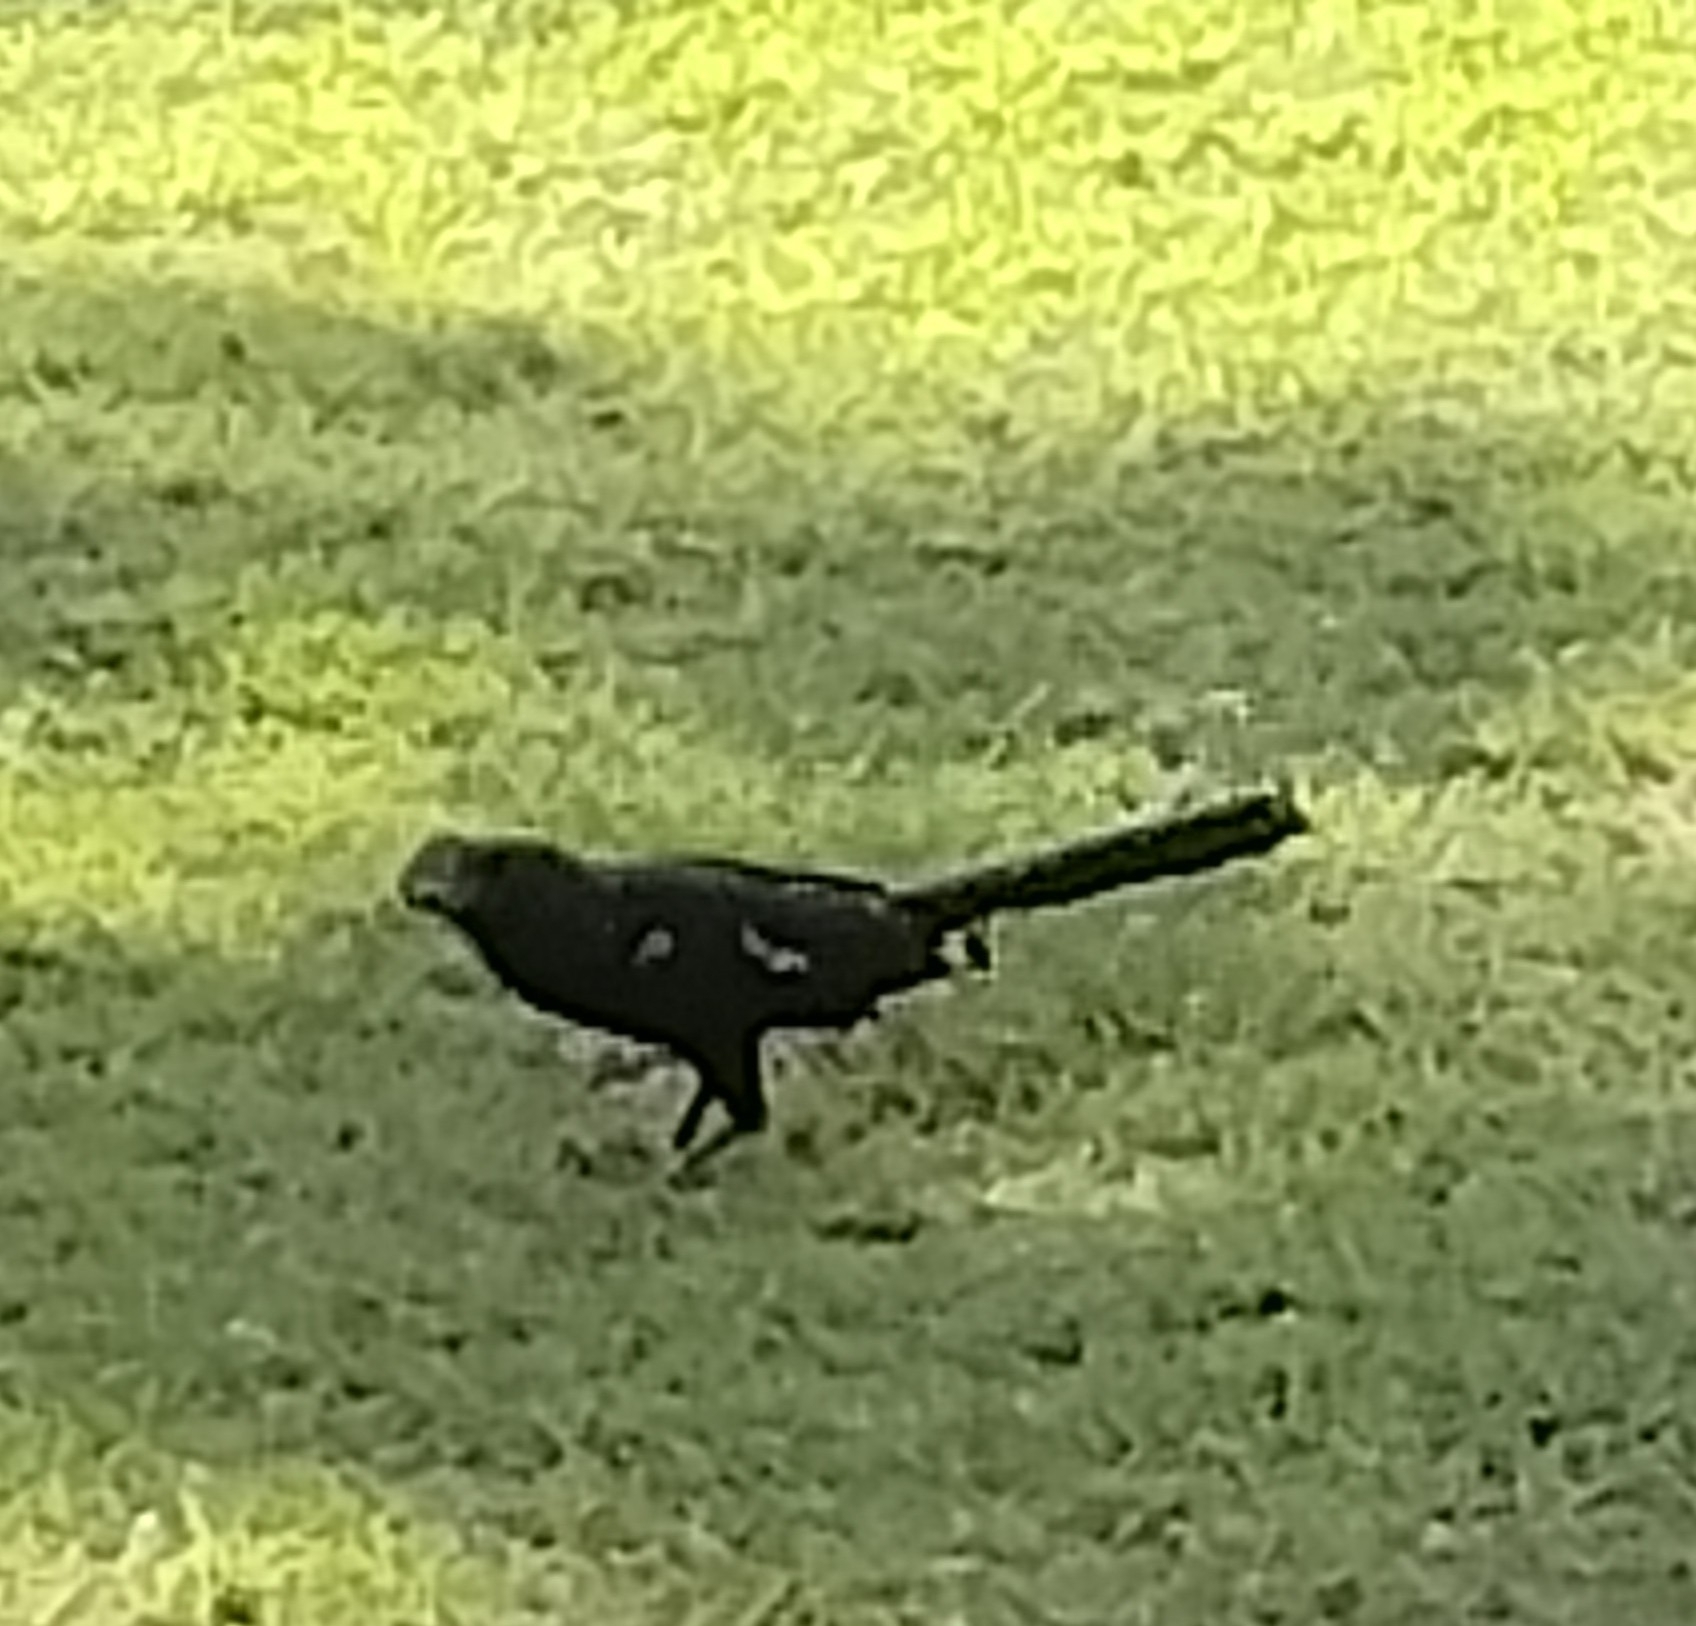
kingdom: Animalia
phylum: Chordata
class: Aves
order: Cuculiformes
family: Cuculidae
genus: Crotophaga
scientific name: Crotophaga ani
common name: Smooth-billed ani
